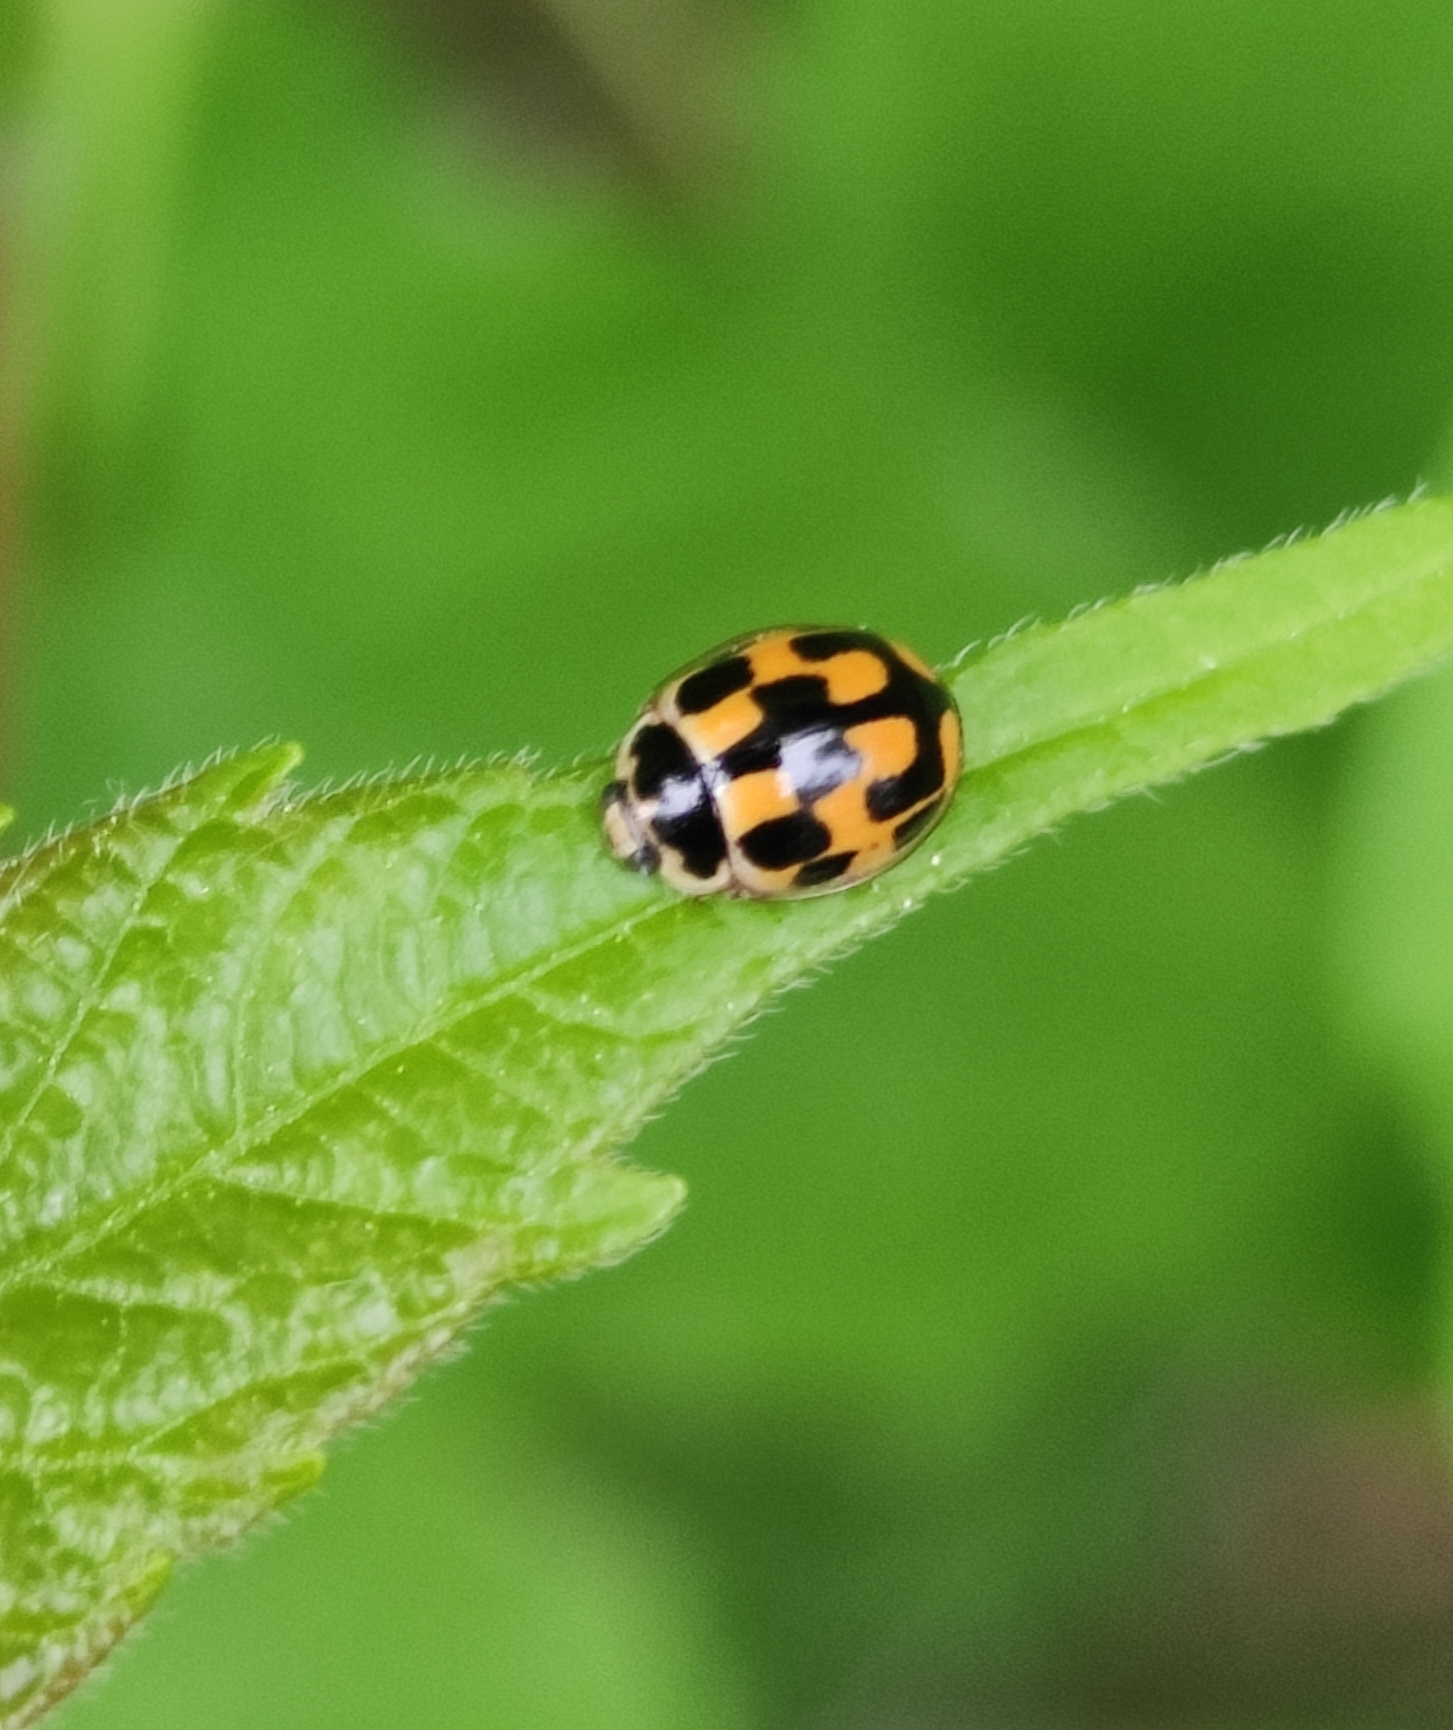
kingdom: Animalia
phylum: Arthropoda
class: Insecta
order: Coleoptera
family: Coccinellidae
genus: Propylaea
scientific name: Propylaea quatuordecimpunctata
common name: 14-spotted ladybird beetle
